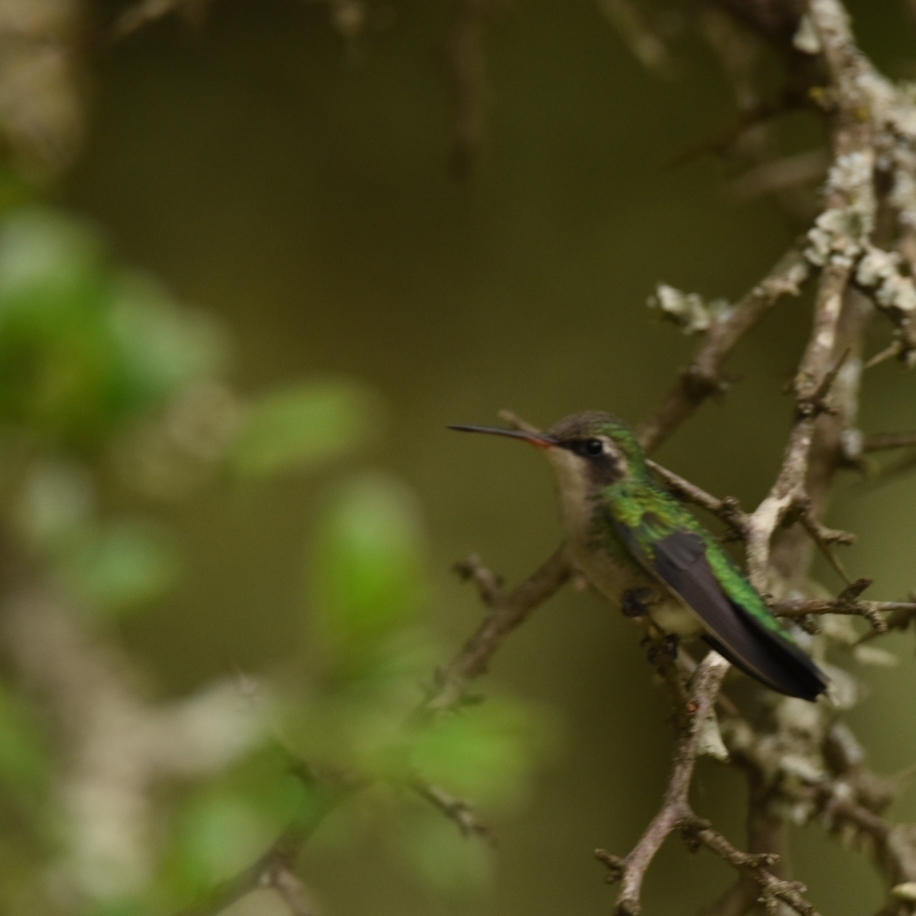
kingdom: Animalia
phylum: Chordata
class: Aves
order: Apodiformes
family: Trochilidae
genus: Chlorostilbon
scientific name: Chlorostilbon lucidus
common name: Glittering-bellied emerald
